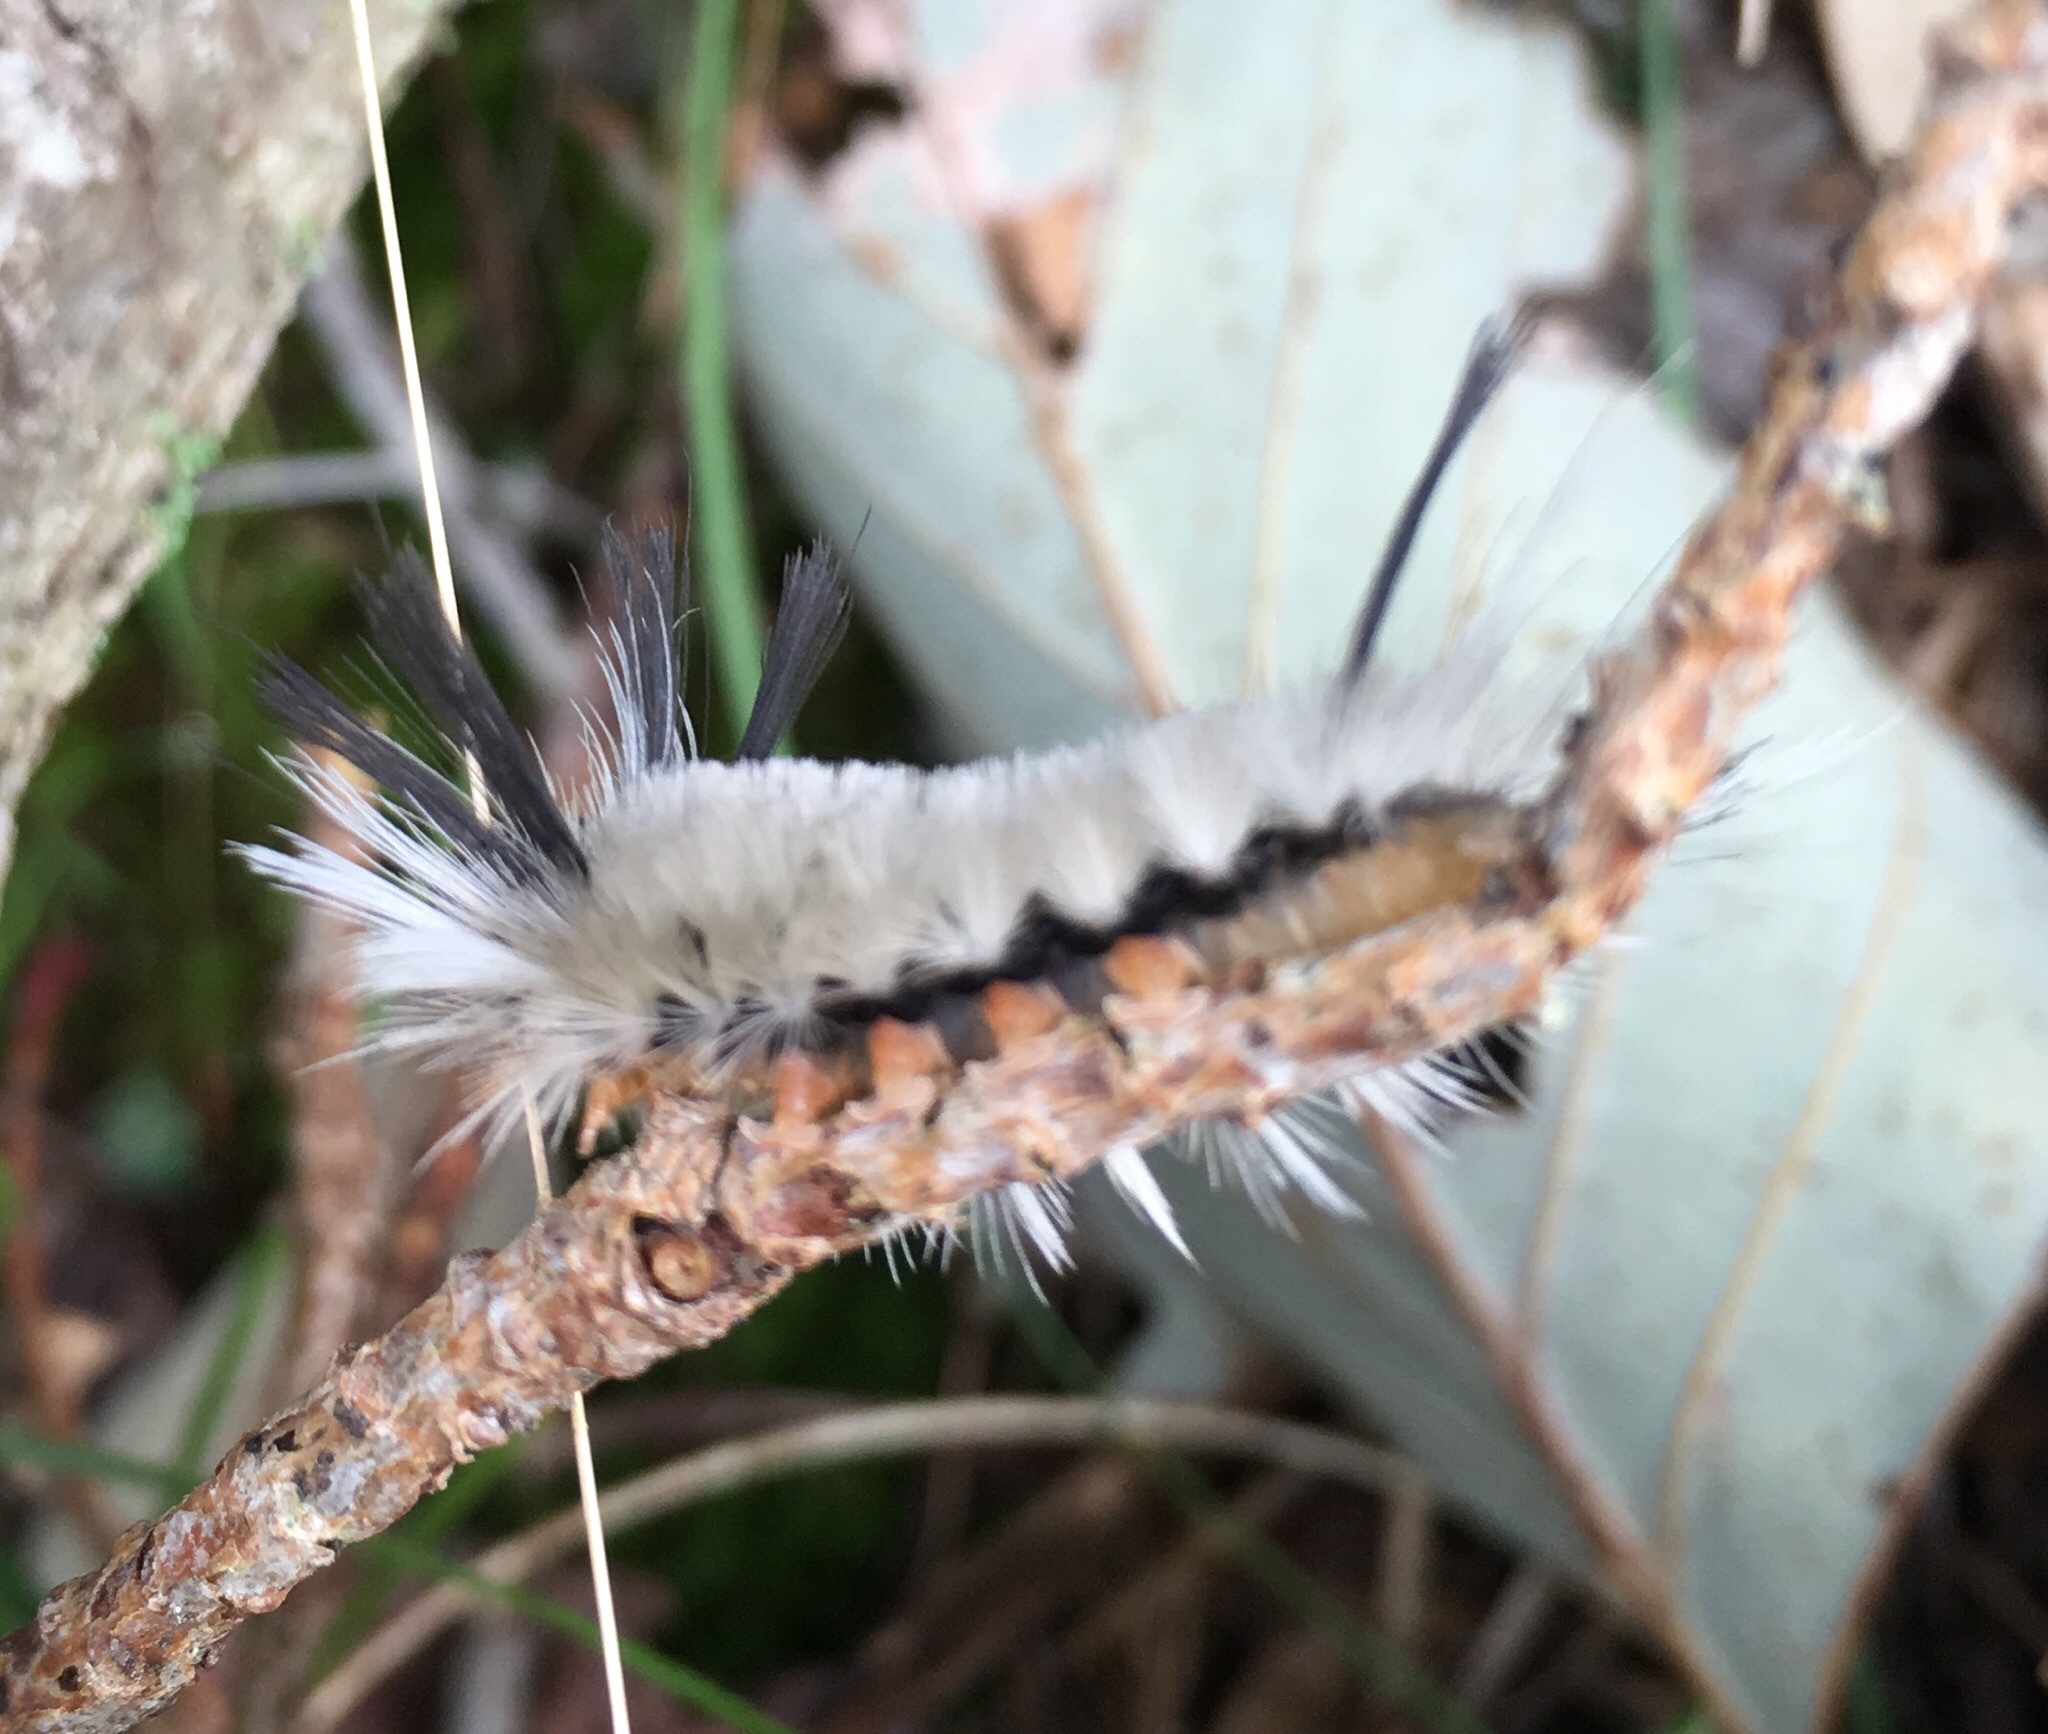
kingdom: Animalia
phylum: Arthropoda
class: Insecta
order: Lepidoptera
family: Erebidae
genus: Halysidota
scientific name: Halysidota tessellaris
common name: Banded tussock moth
